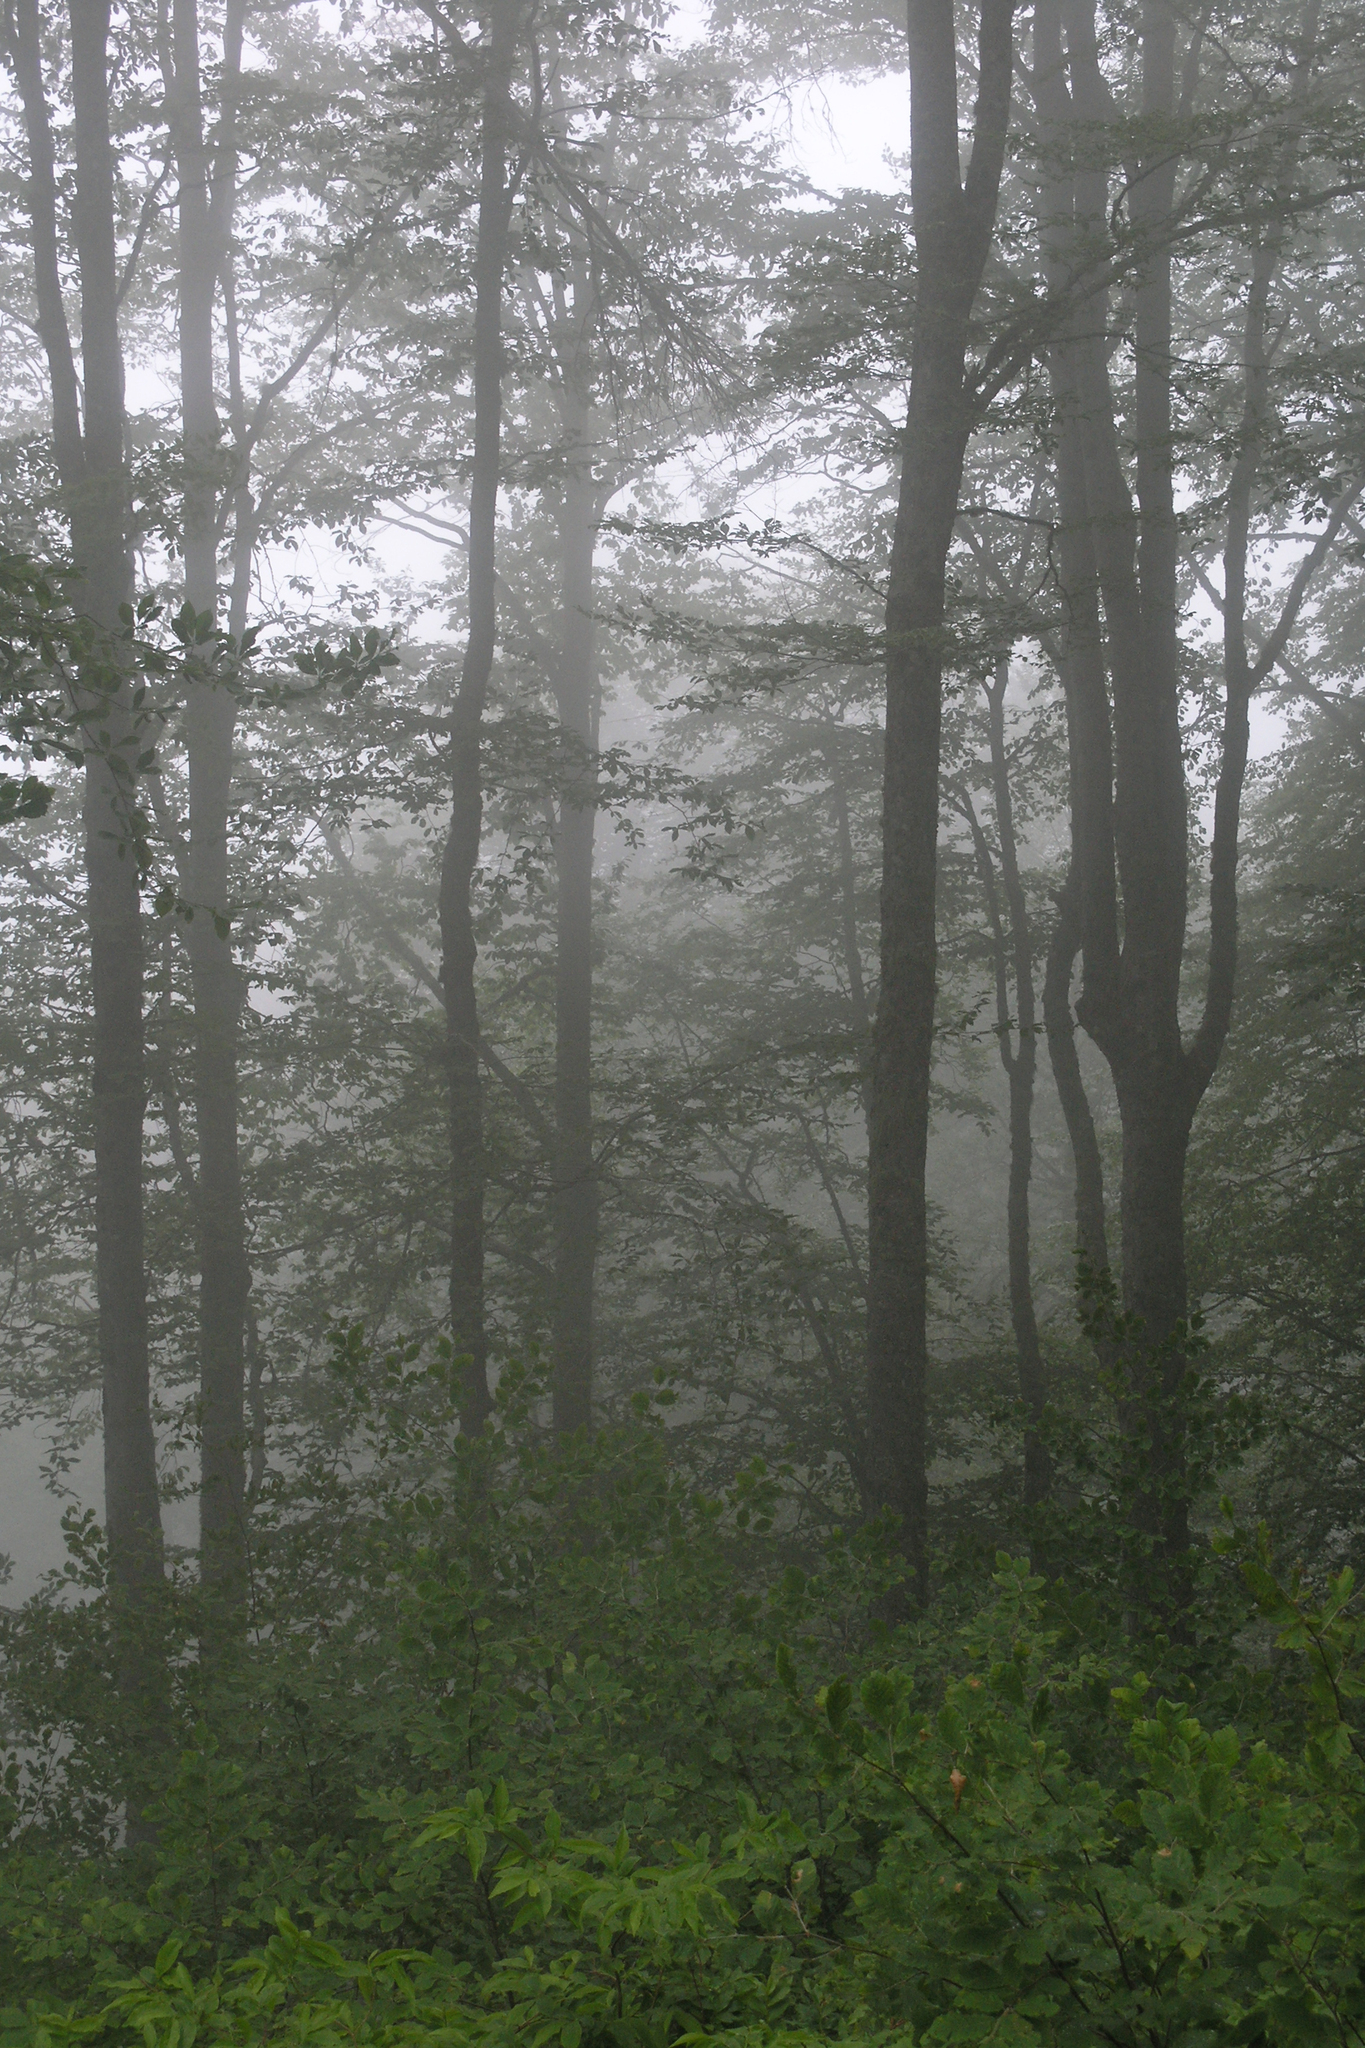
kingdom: Plantae
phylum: Tracheophyta
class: Magnoliopsida
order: Fagales
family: Fagaceae
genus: Fagus
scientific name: Fagus orientalis
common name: Oriental beech
